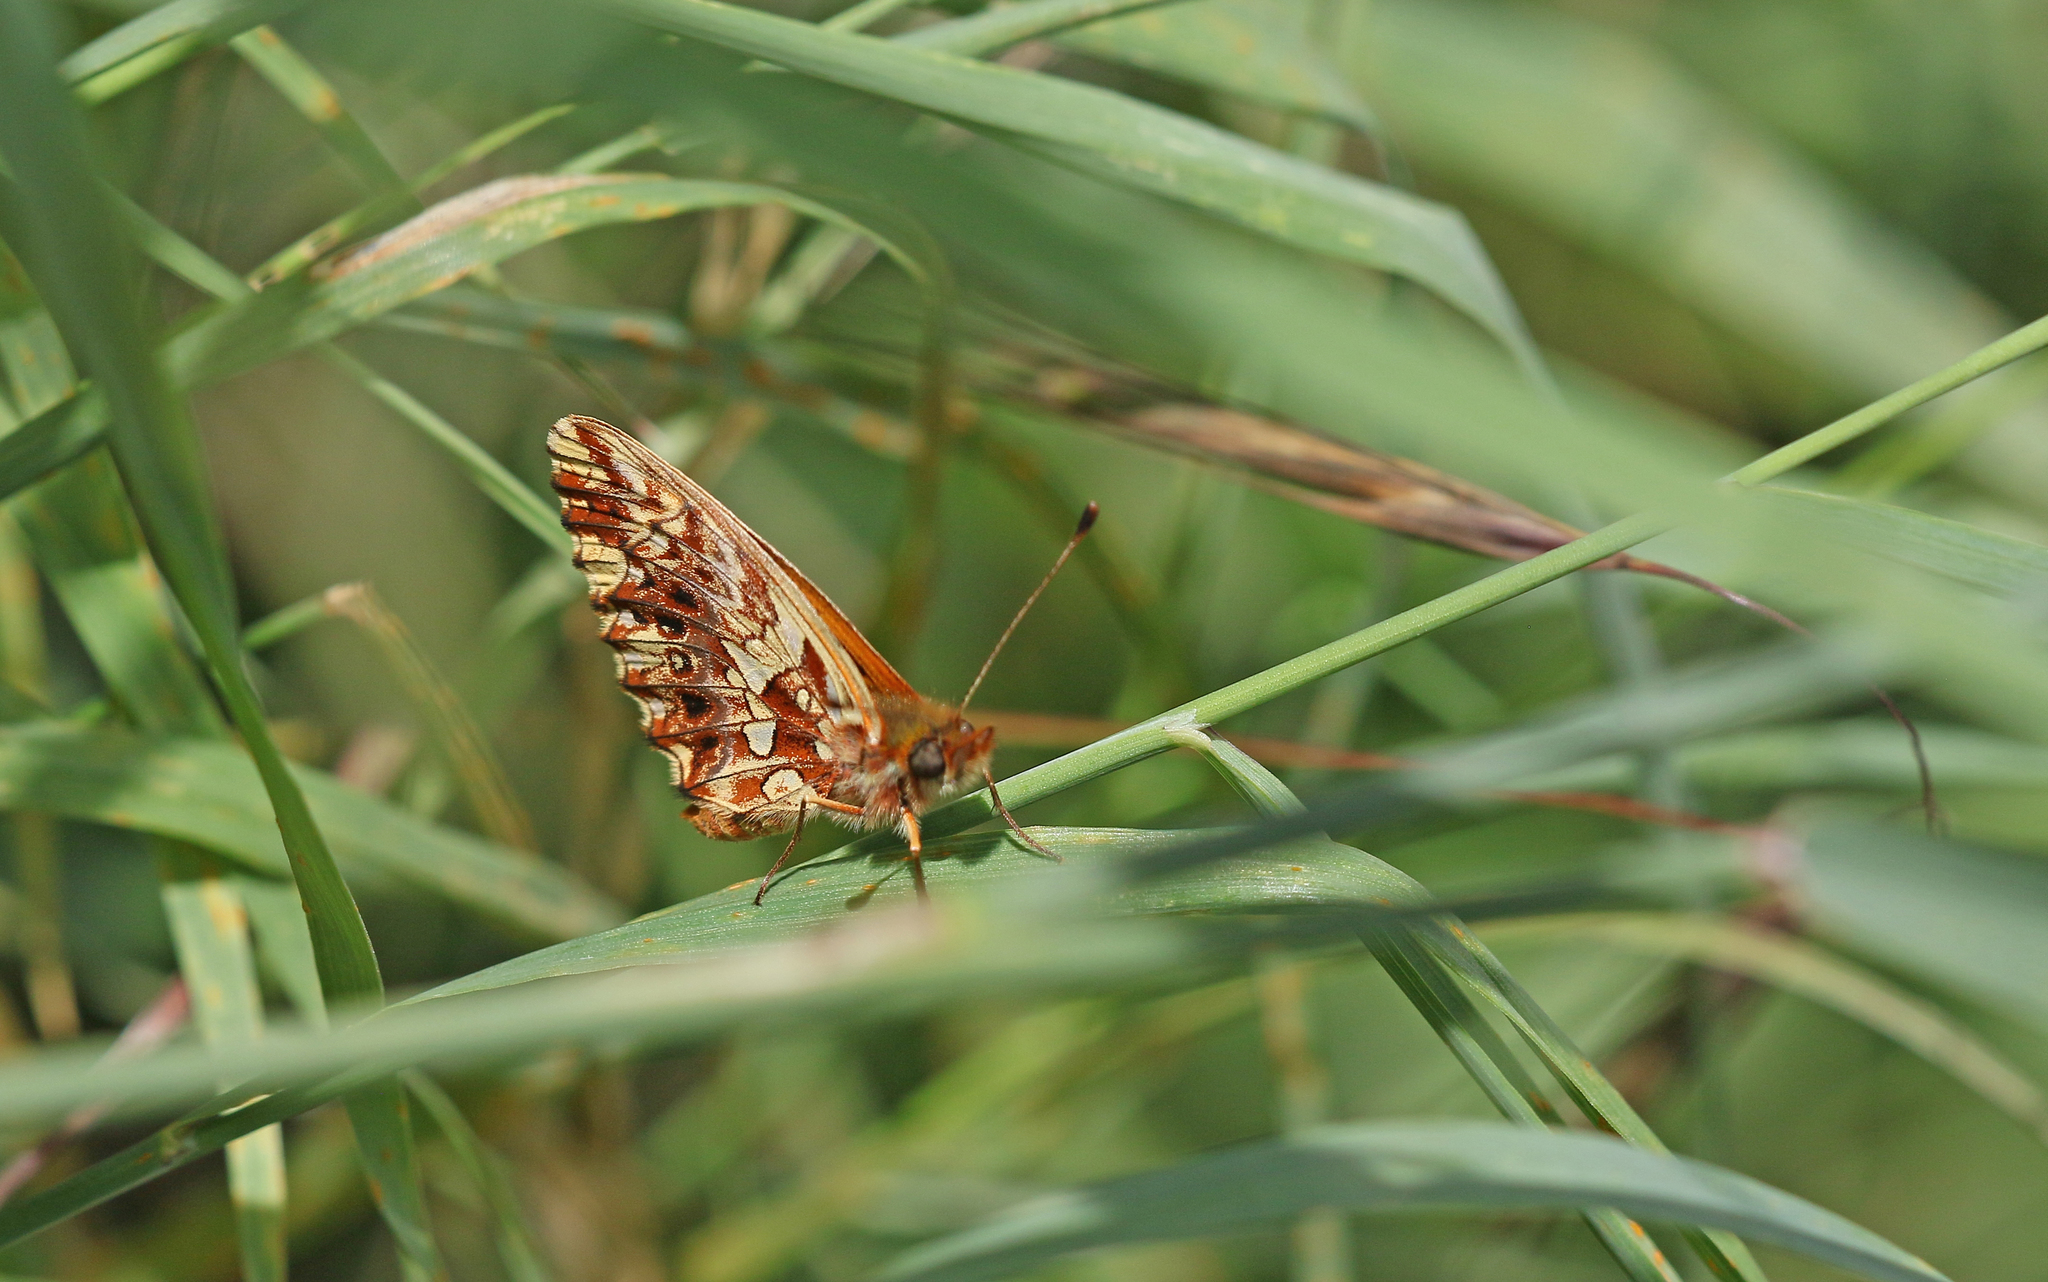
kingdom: Animalia
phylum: Arthropoda
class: Insecta
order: Lepidoptera
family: Nymphalidae
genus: Boloria
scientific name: Boloria dia
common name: Weaver's fritillary
